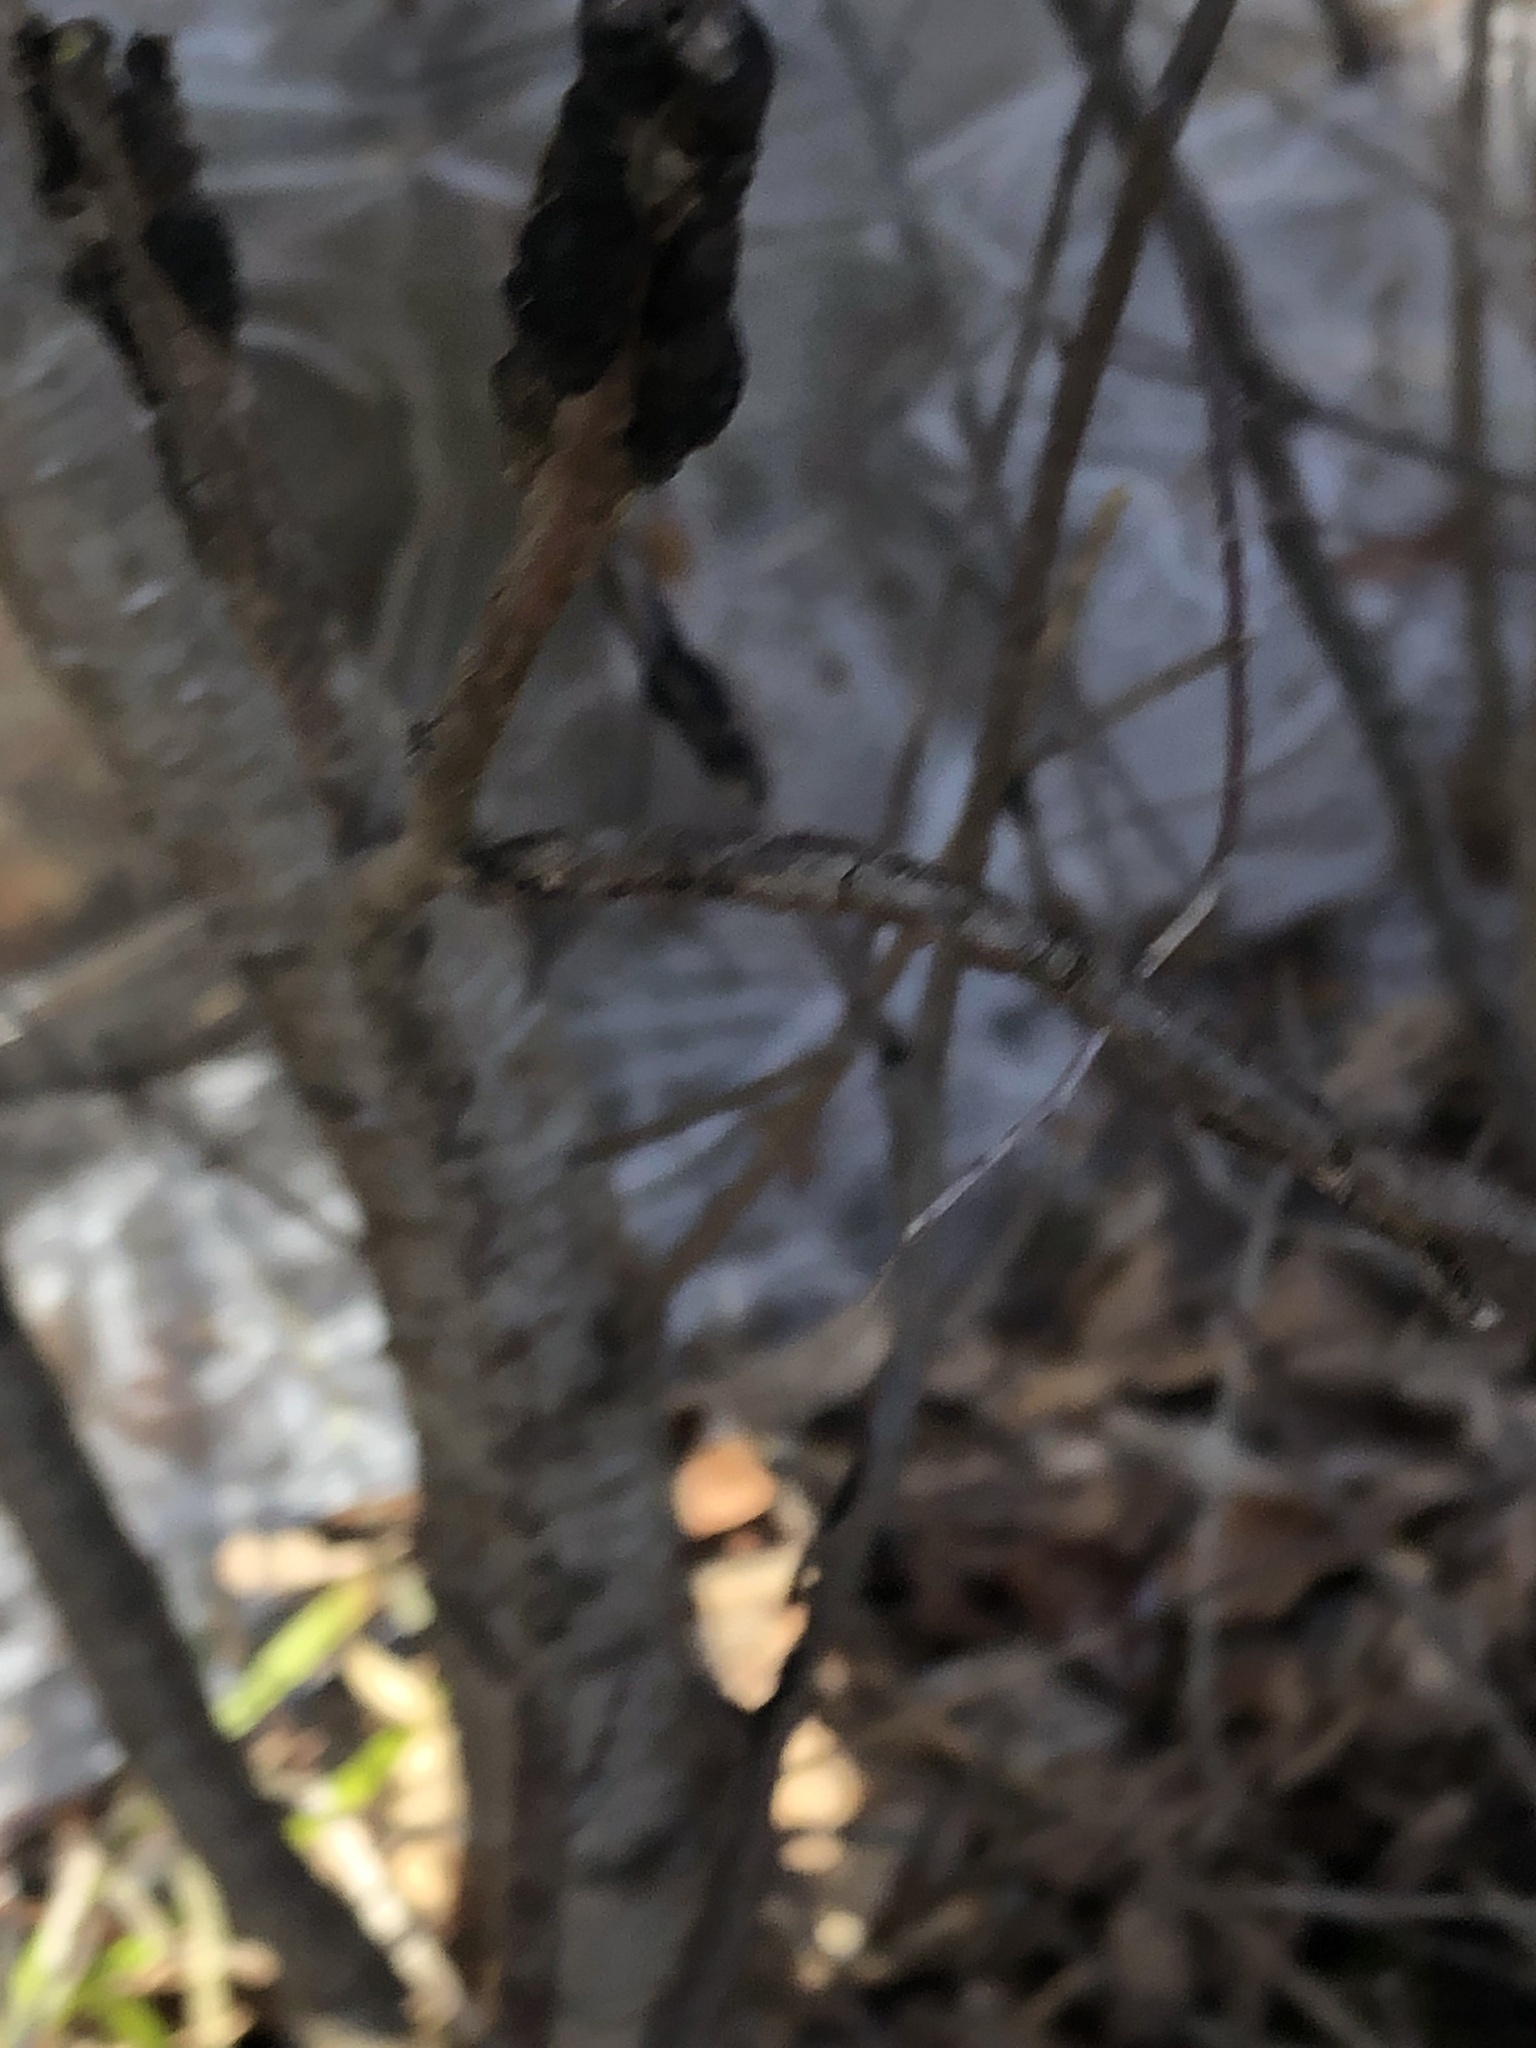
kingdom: Fungi
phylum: Ascomycota
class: Dothideomycetes
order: Venturiales
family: Venturiaceae
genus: Apiosporina
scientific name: Apiosporina morbosa
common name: Black knot
